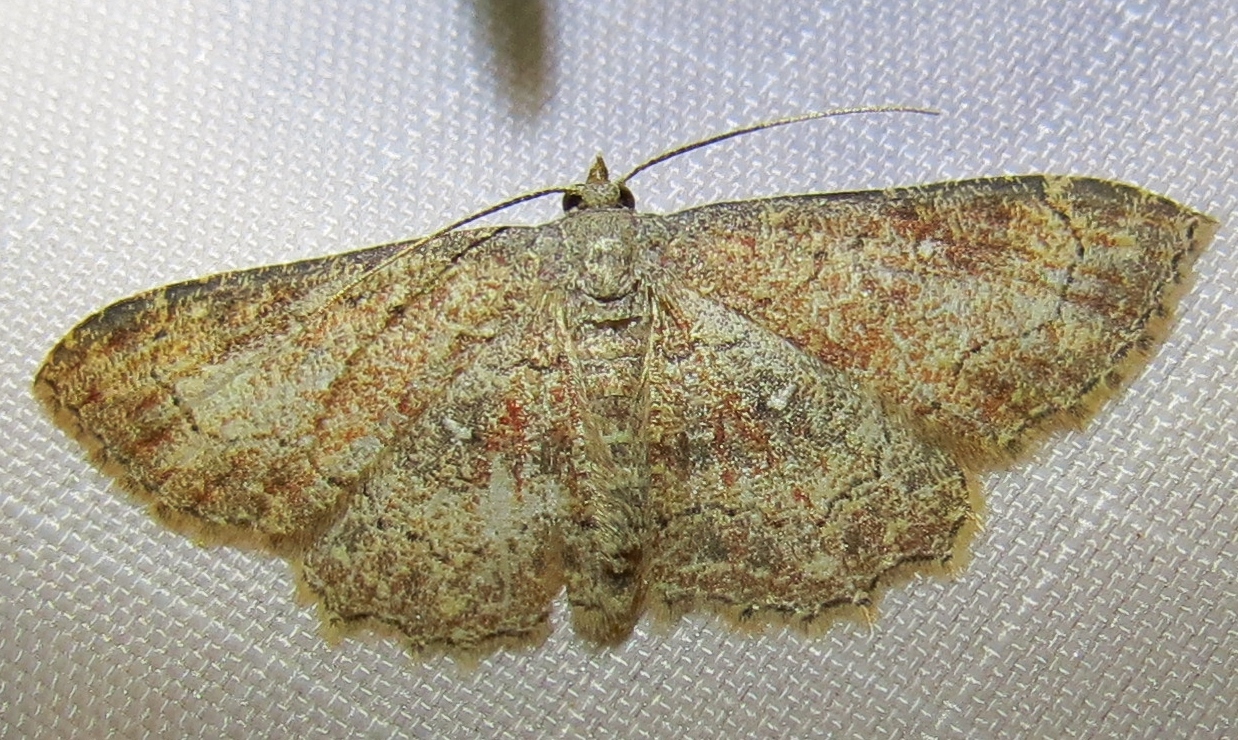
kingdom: Animalia
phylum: Arthropoda
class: Insecta
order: Lepidoptera
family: Geometridae
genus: Cyclophora
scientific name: Cyclophora nanaria
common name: Cankerworm
